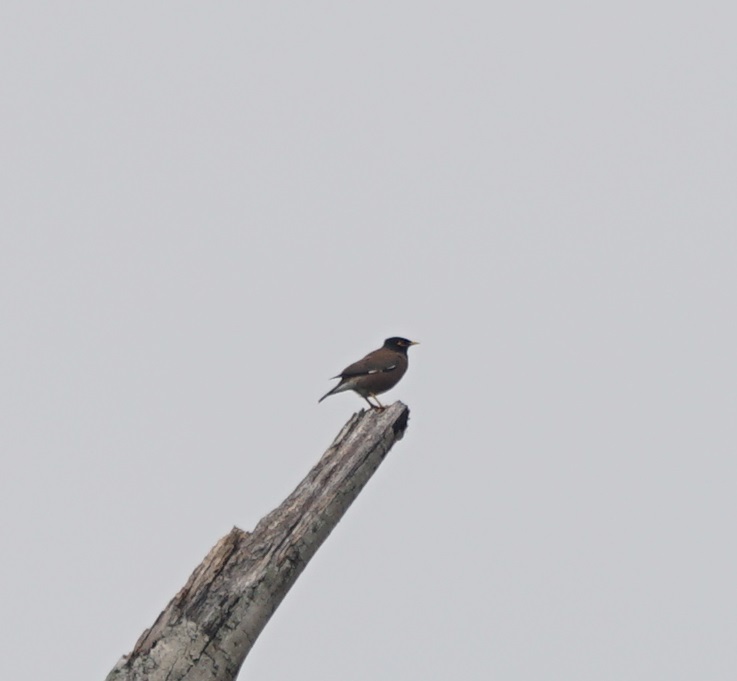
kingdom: Animalia
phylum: Chordata
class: Aves
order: Passeriformes
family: Sturnidae
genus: Acridotheres
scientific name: Acridotheres tristis
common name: Common myna
